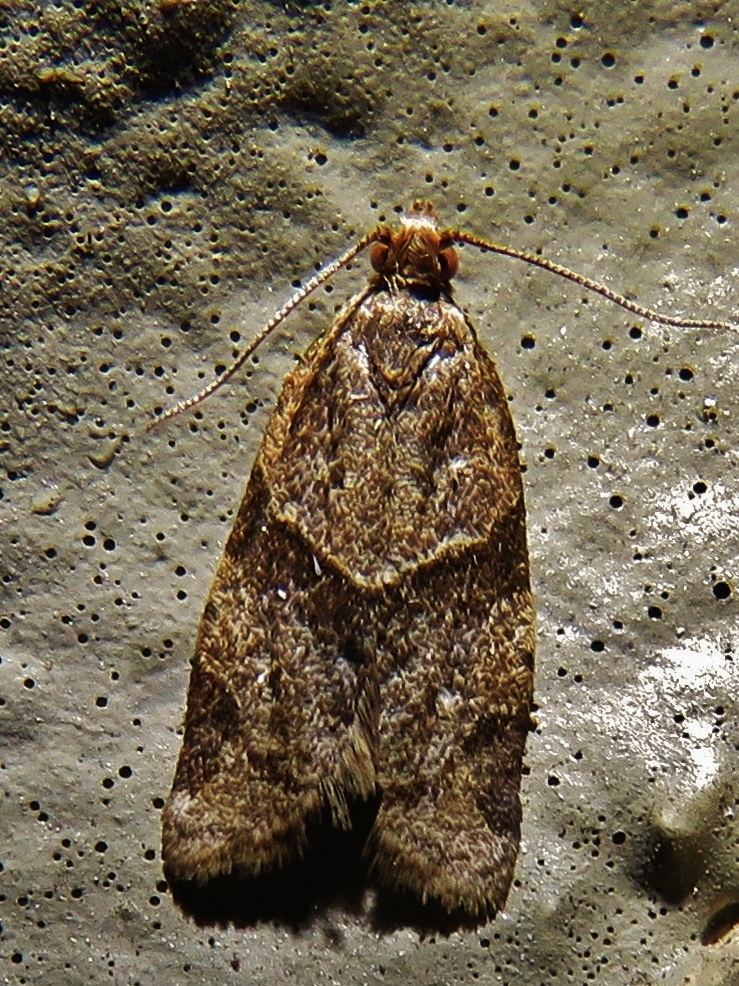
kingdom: Animalia
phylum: Arthropoda
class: Insecta
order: Lepidoptera
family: Tortricidae
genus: Clepsis
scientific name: Clepsis peritana
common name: Garden tortrix
